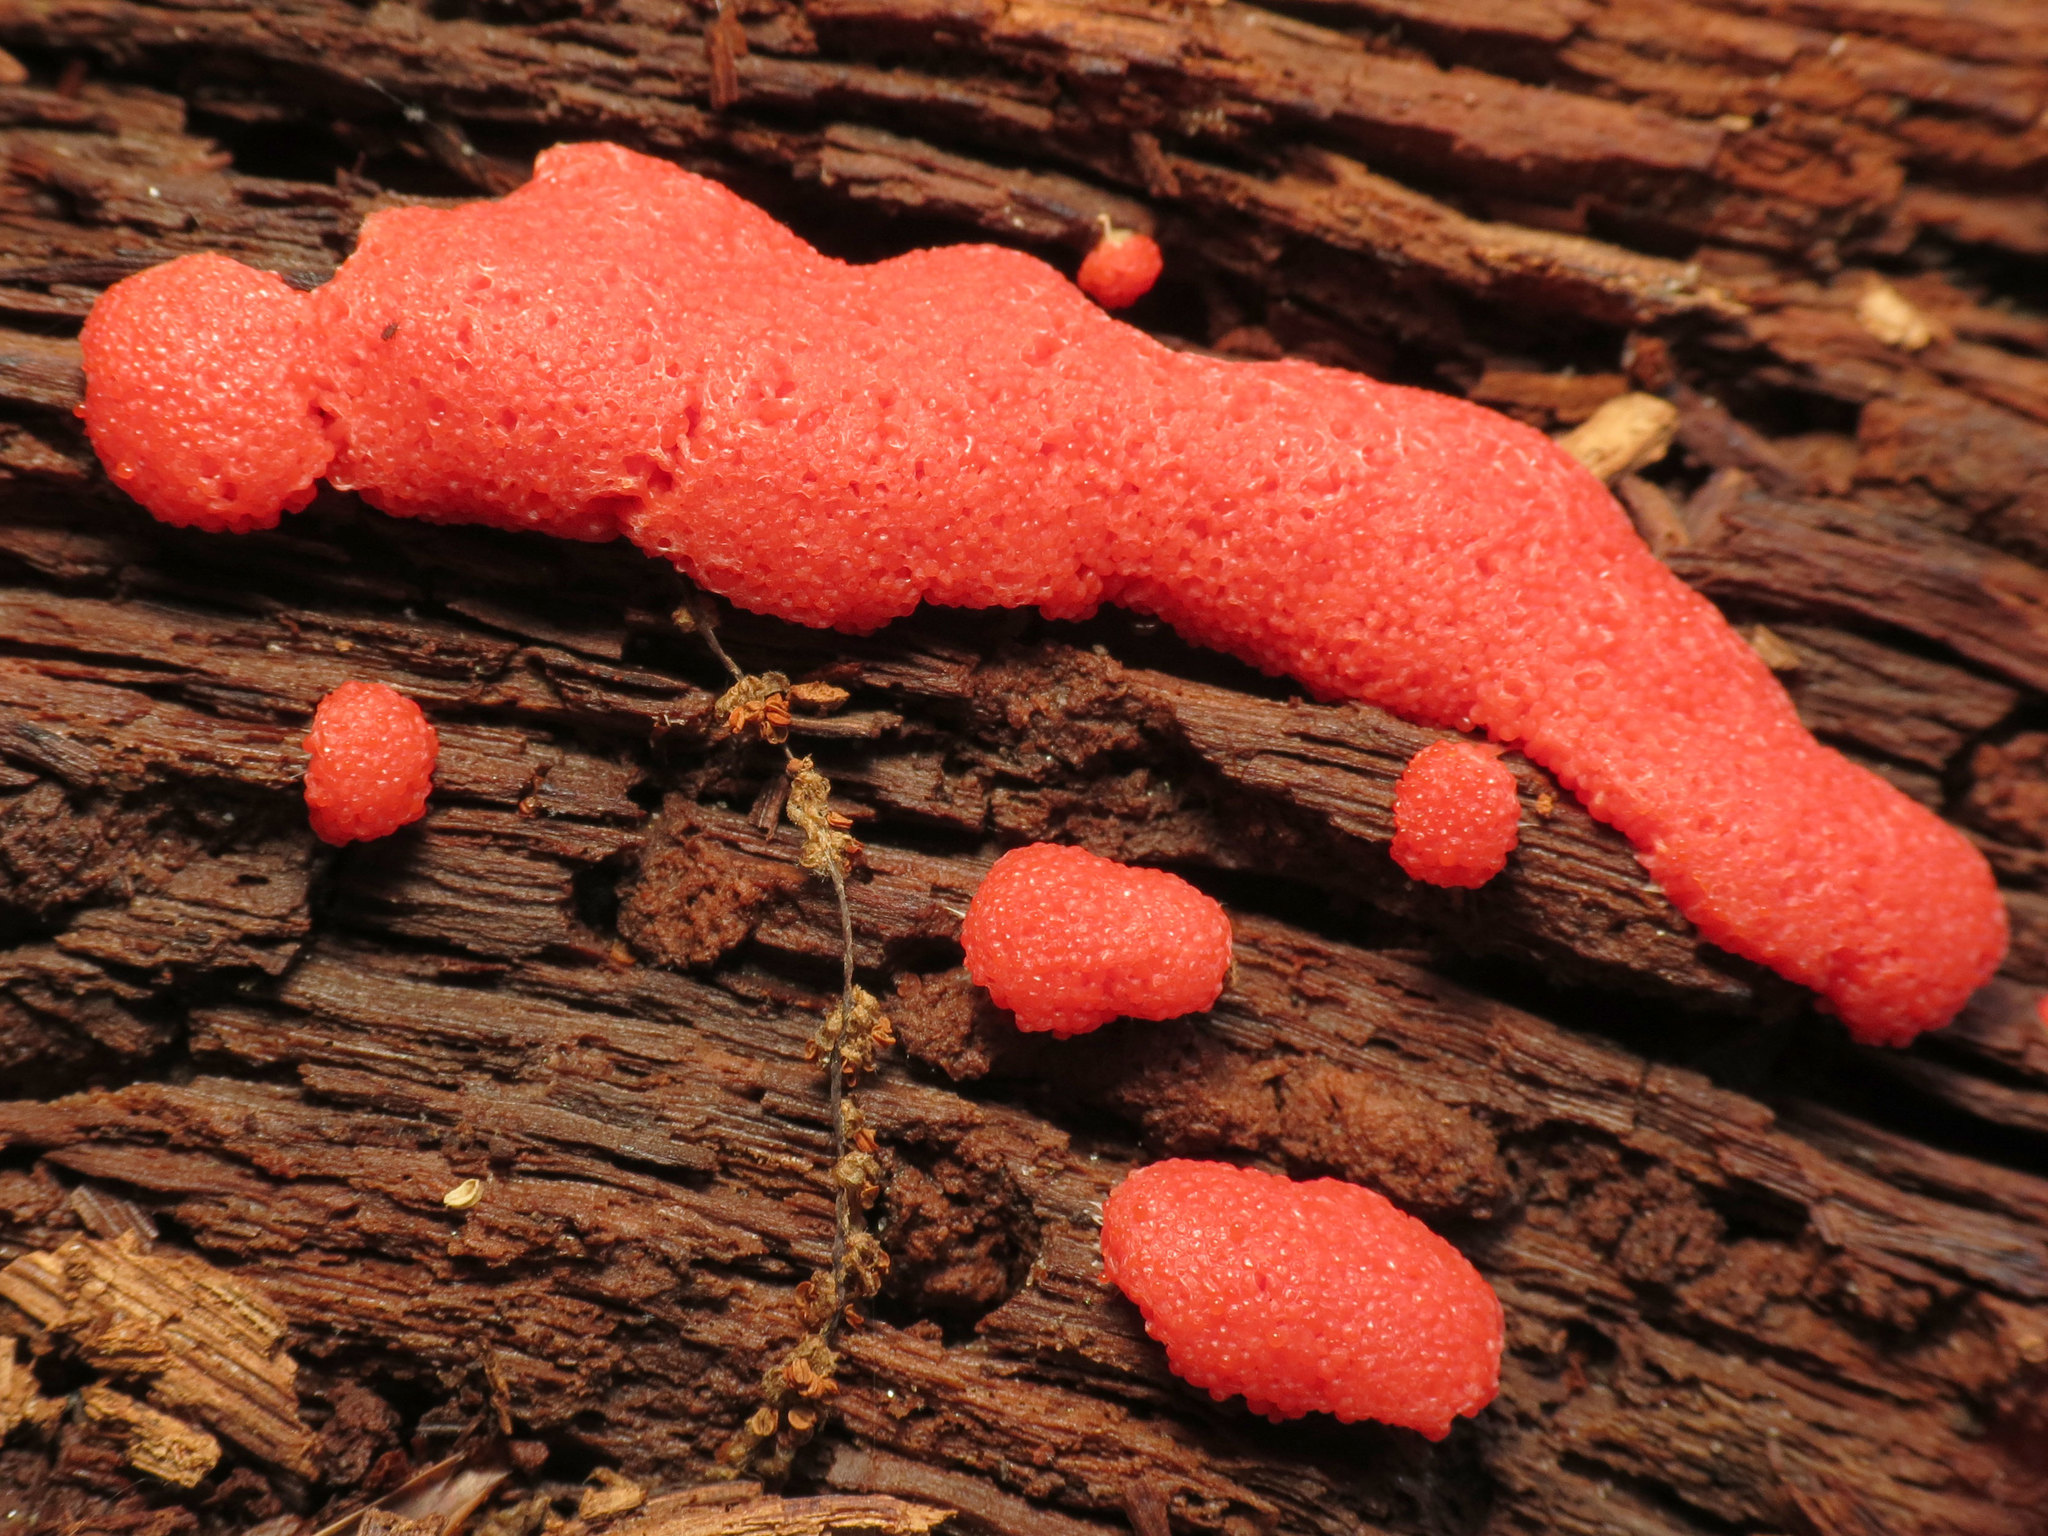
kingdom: Protozoa
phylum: Mycetozoa
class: Myxomycetes
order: Cribrariales
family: Tubiferaceae
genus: Tubifera
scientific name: Tubifera ferruginosa
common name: Red raspberry slime mold
